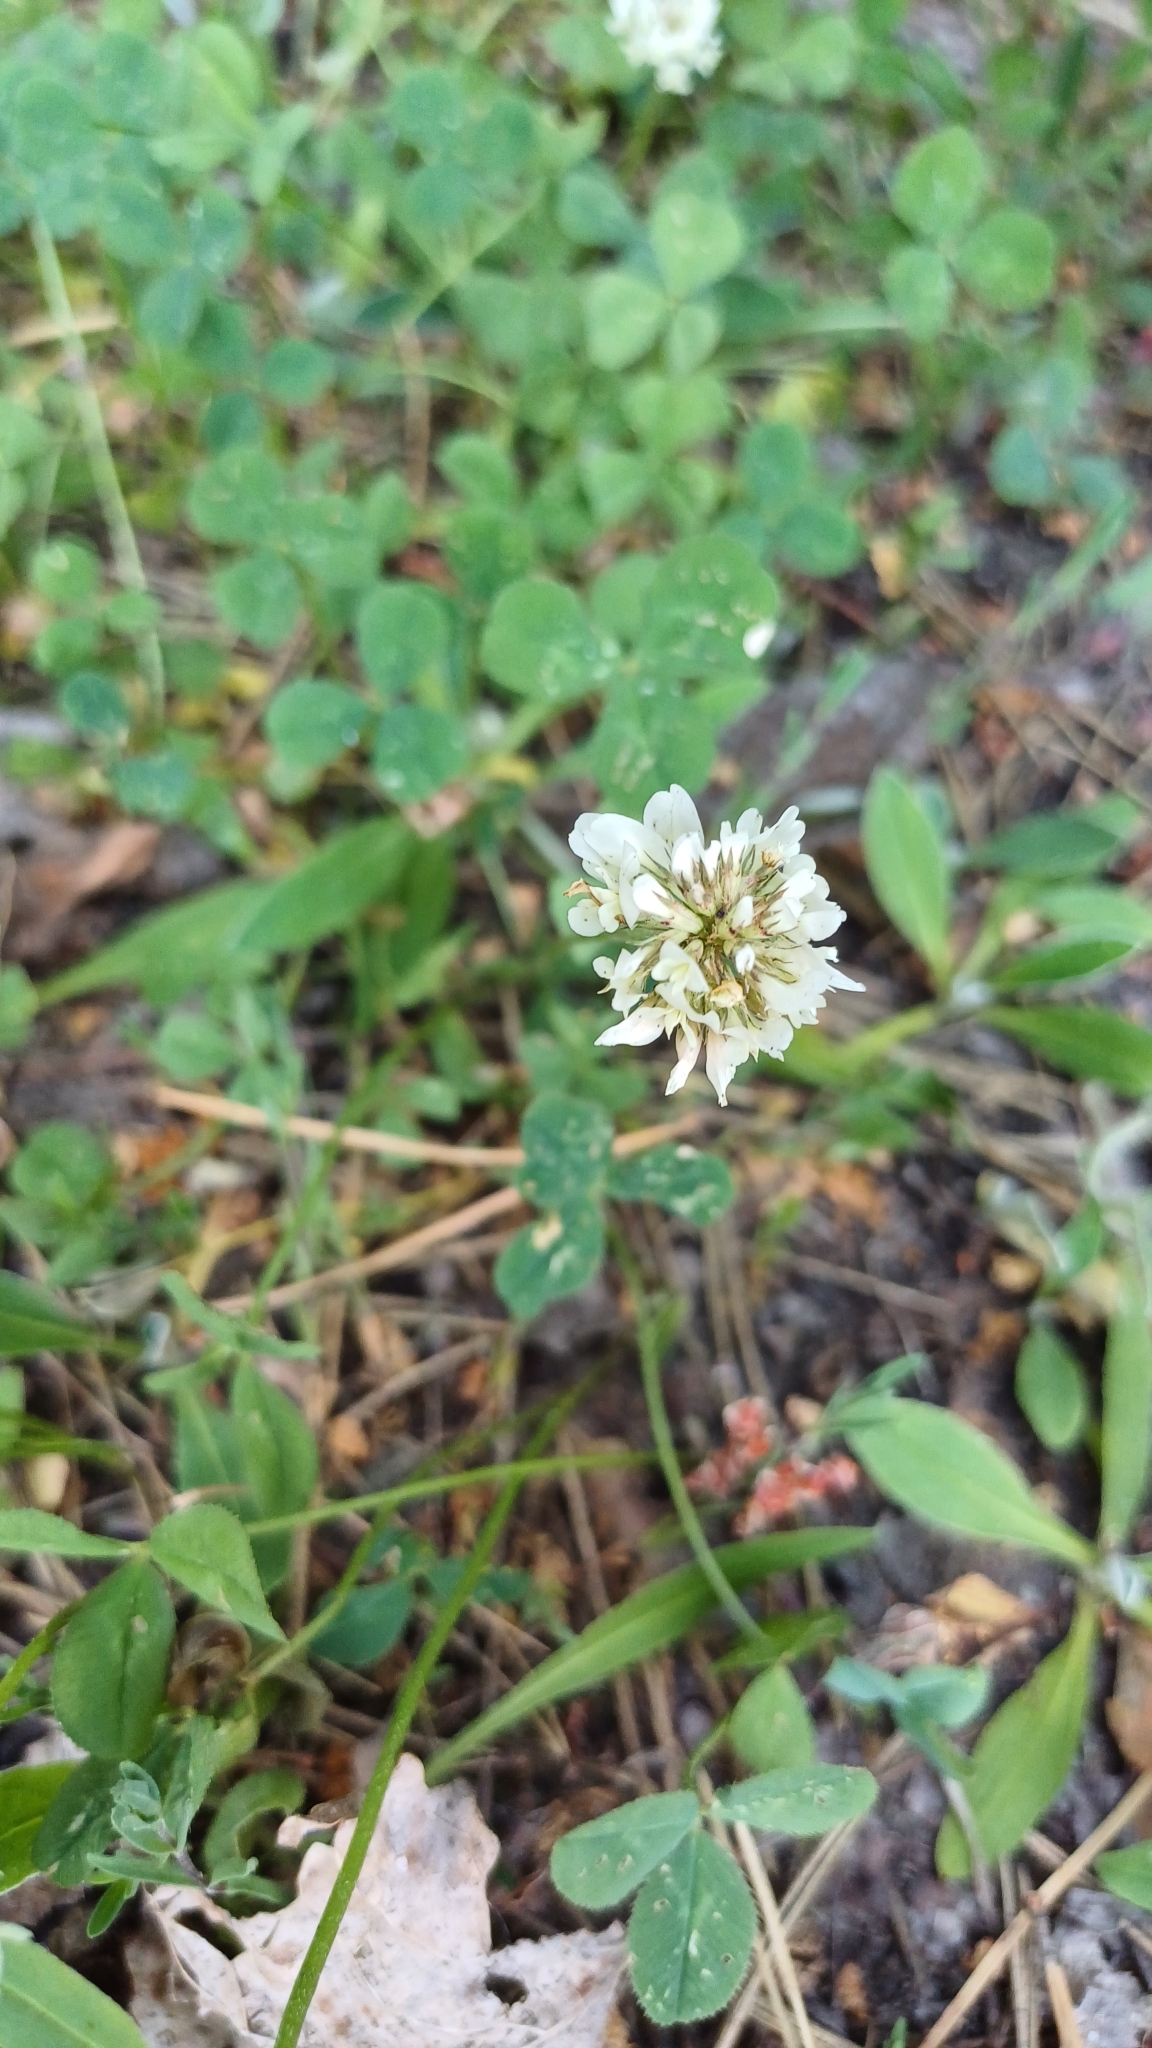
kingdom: Plantae
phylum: Tracheophyta
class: Magnoliopsida
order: Fabales
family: Fabaceae
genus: Trifolium
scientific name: Trifolium repens
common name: White clover
